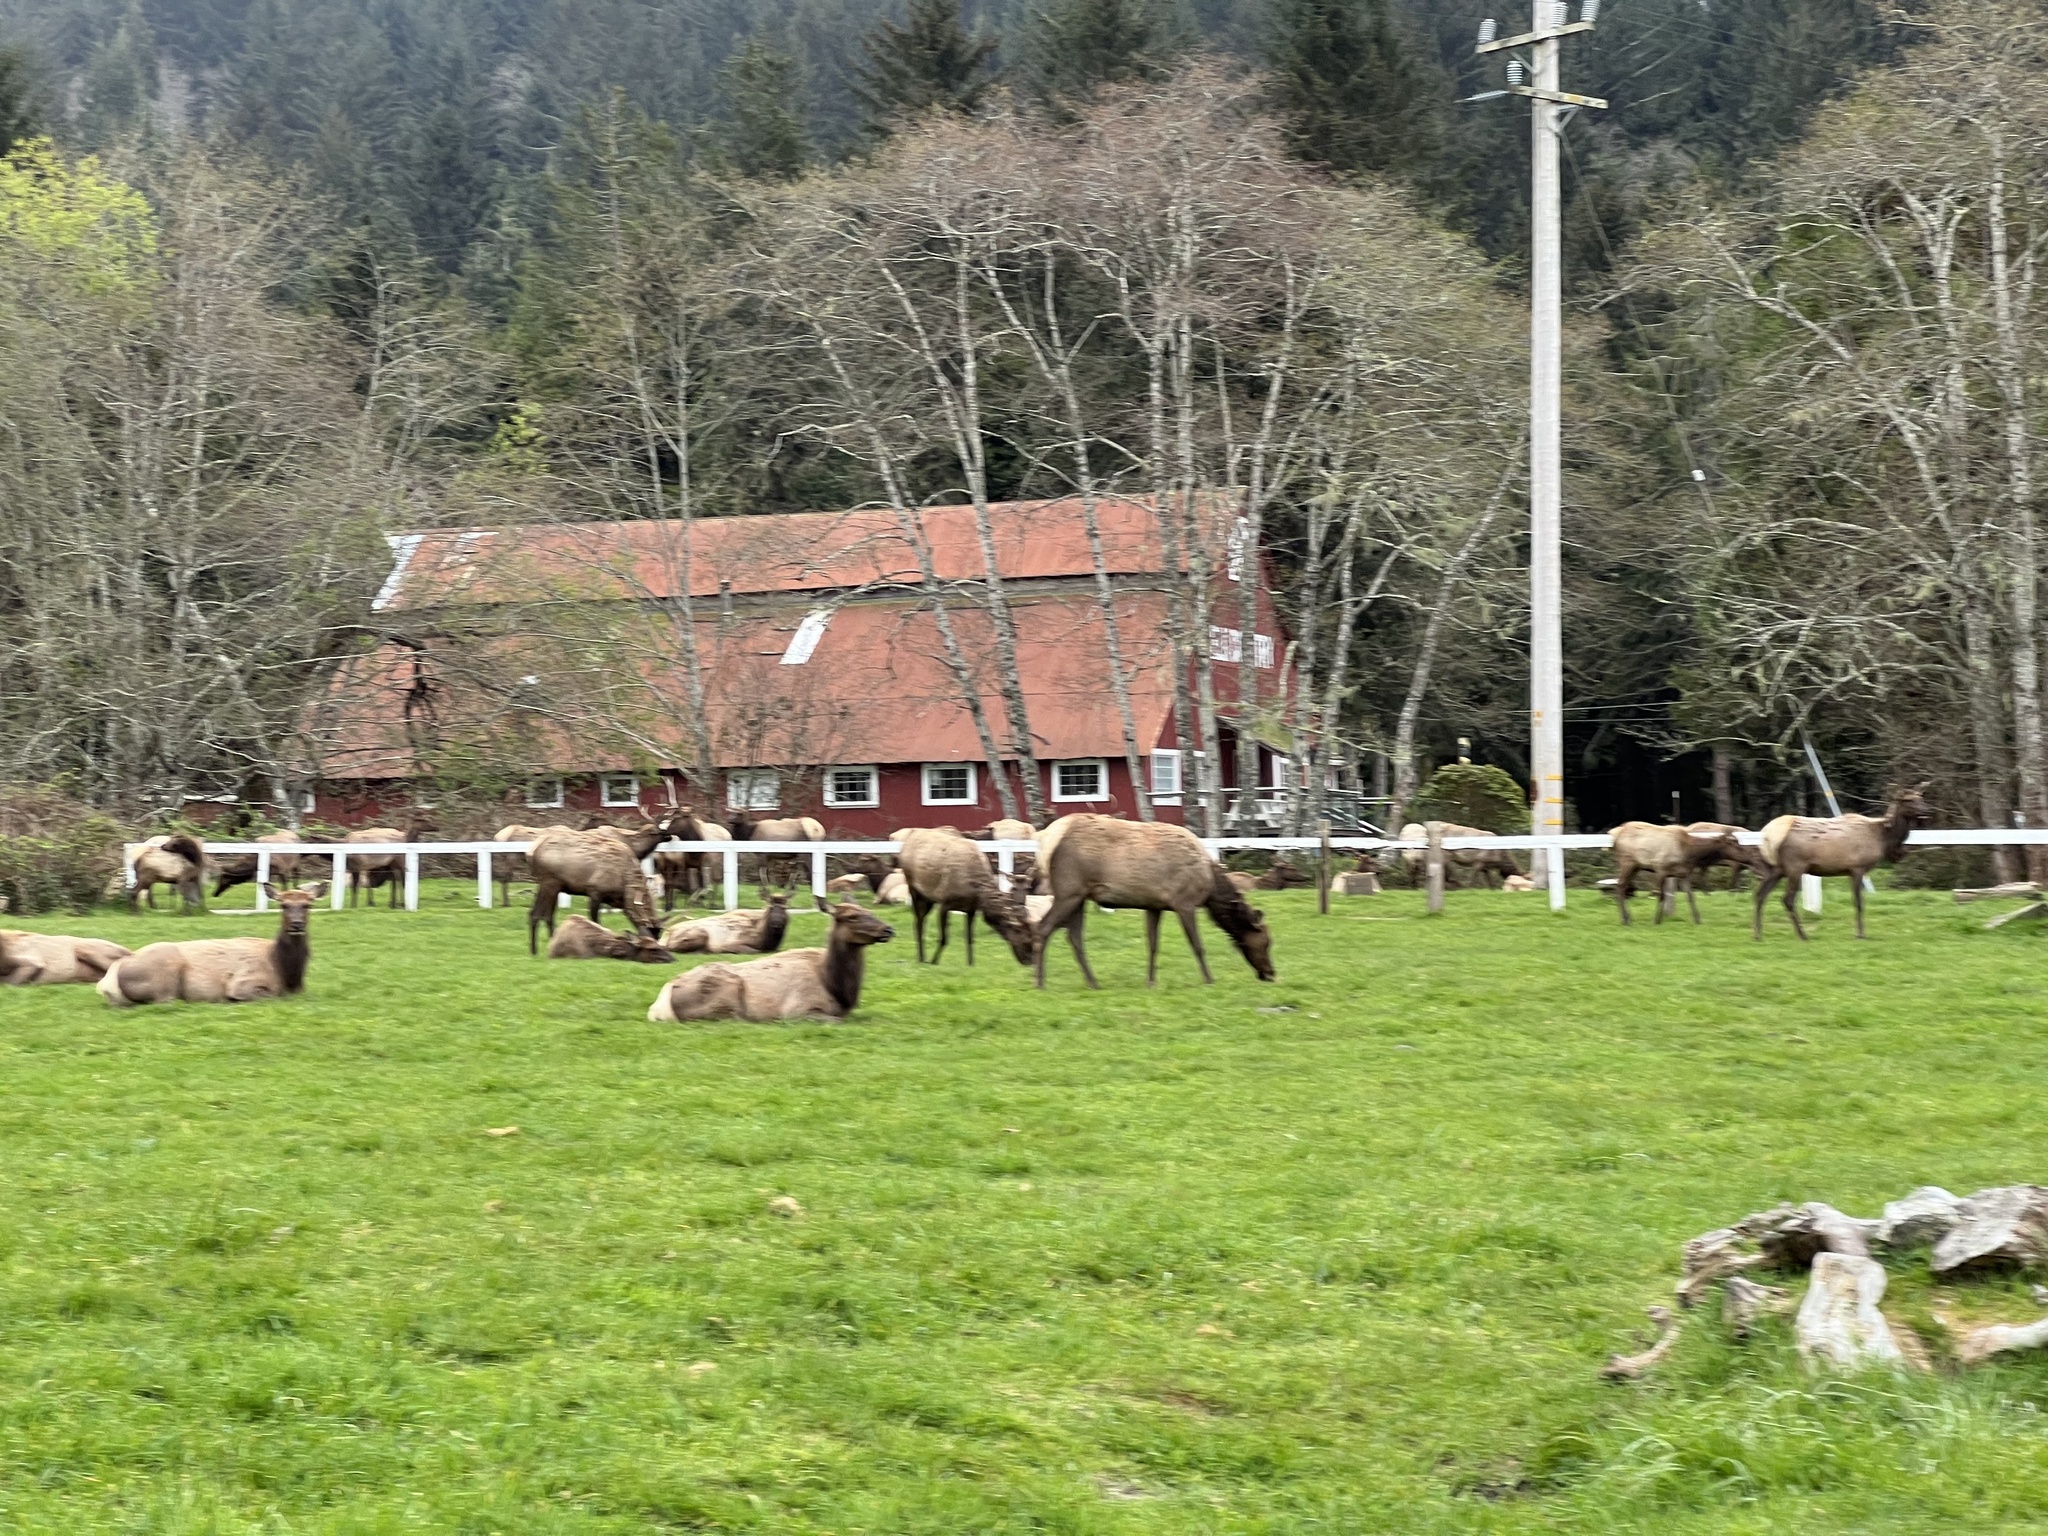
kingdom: Animalia
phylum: Chordata
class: Mammalia
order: Artiodactyla
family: Cervidae
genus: Cervus
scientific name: Cervus elaphus
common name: Red deer
